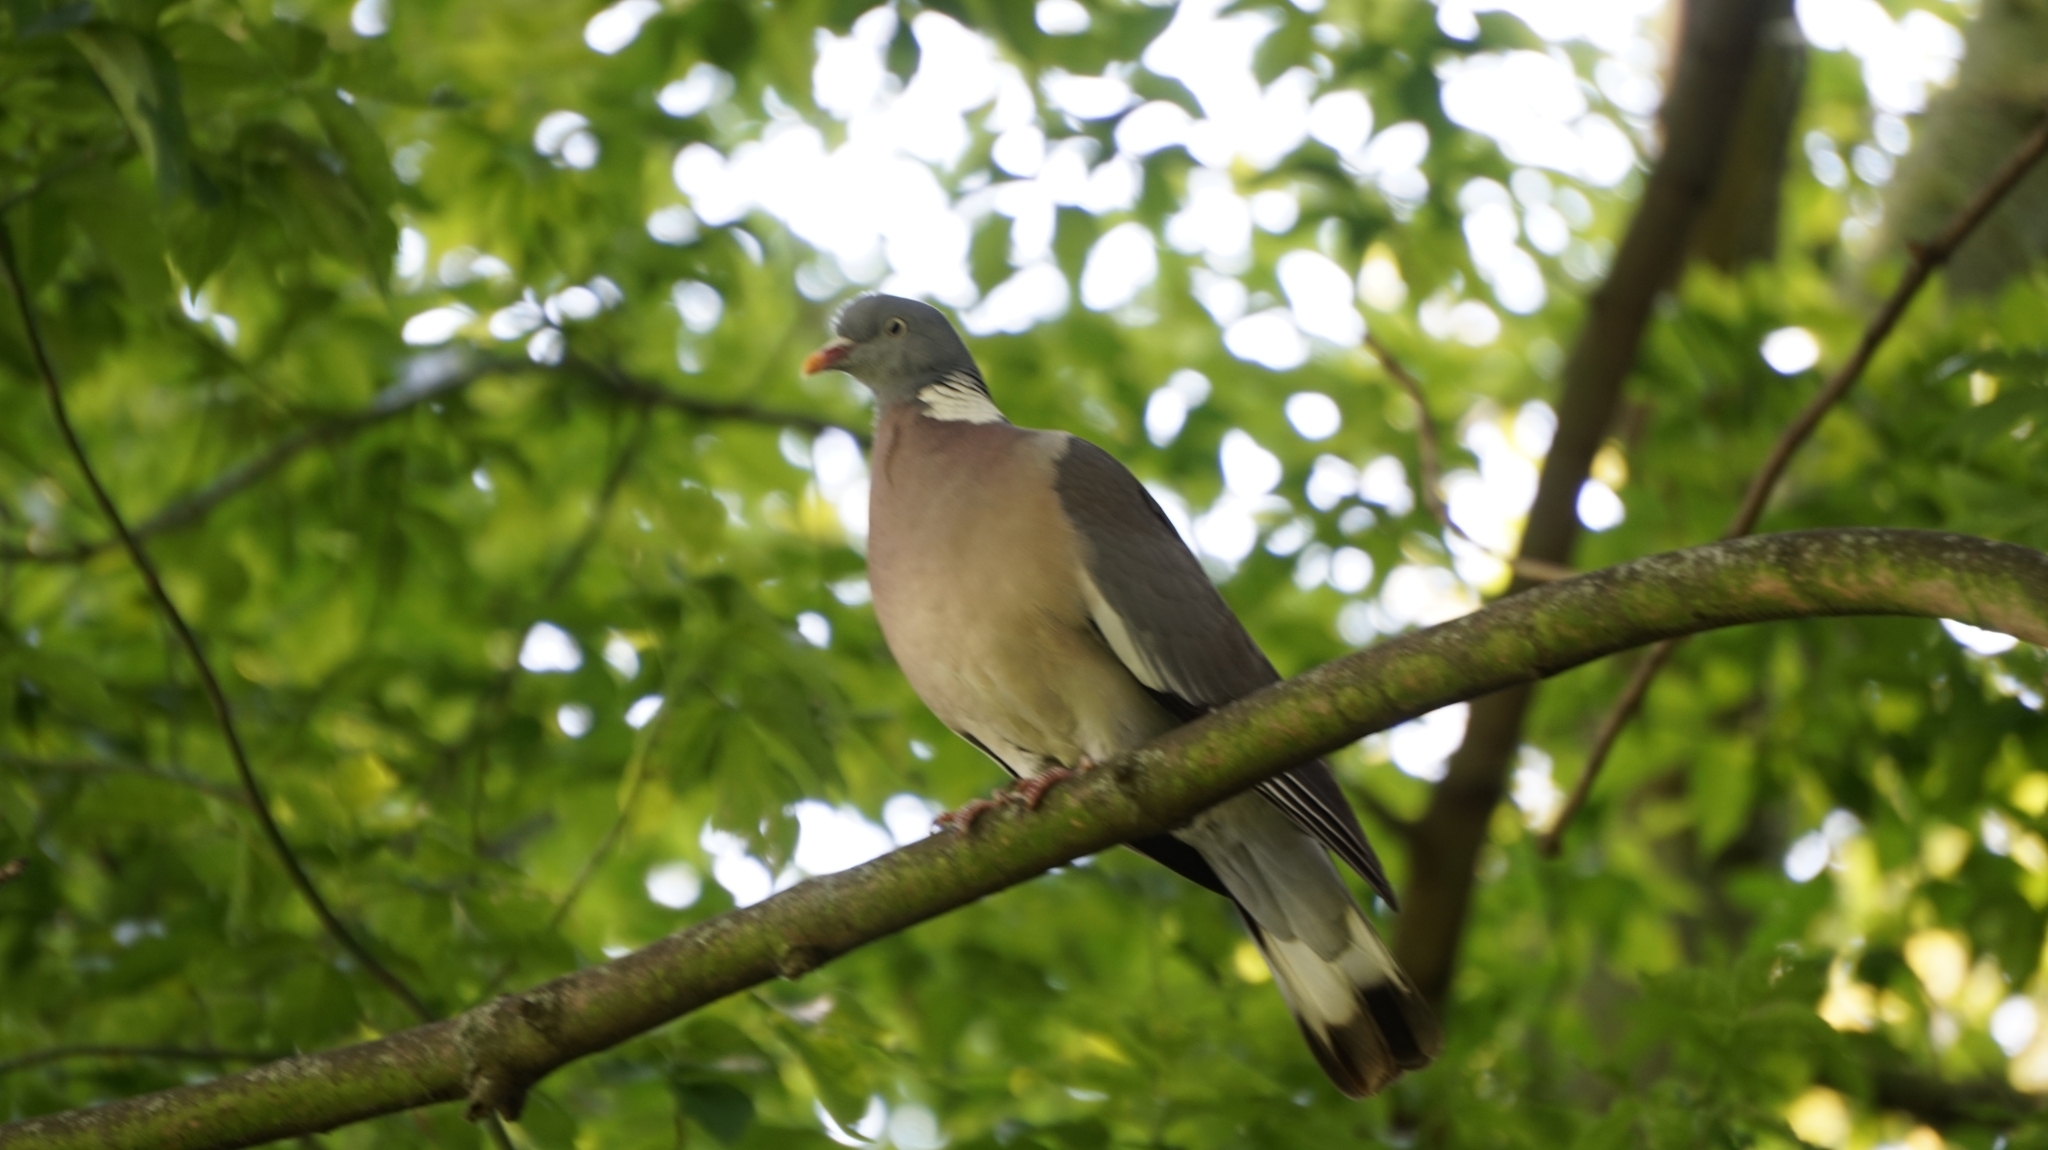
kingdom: Animalia
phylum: Chordata
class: Aves
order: Columbiformes
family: Columbidae
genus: Columba
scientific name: Columba palumbus
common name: Common wood pigeon
